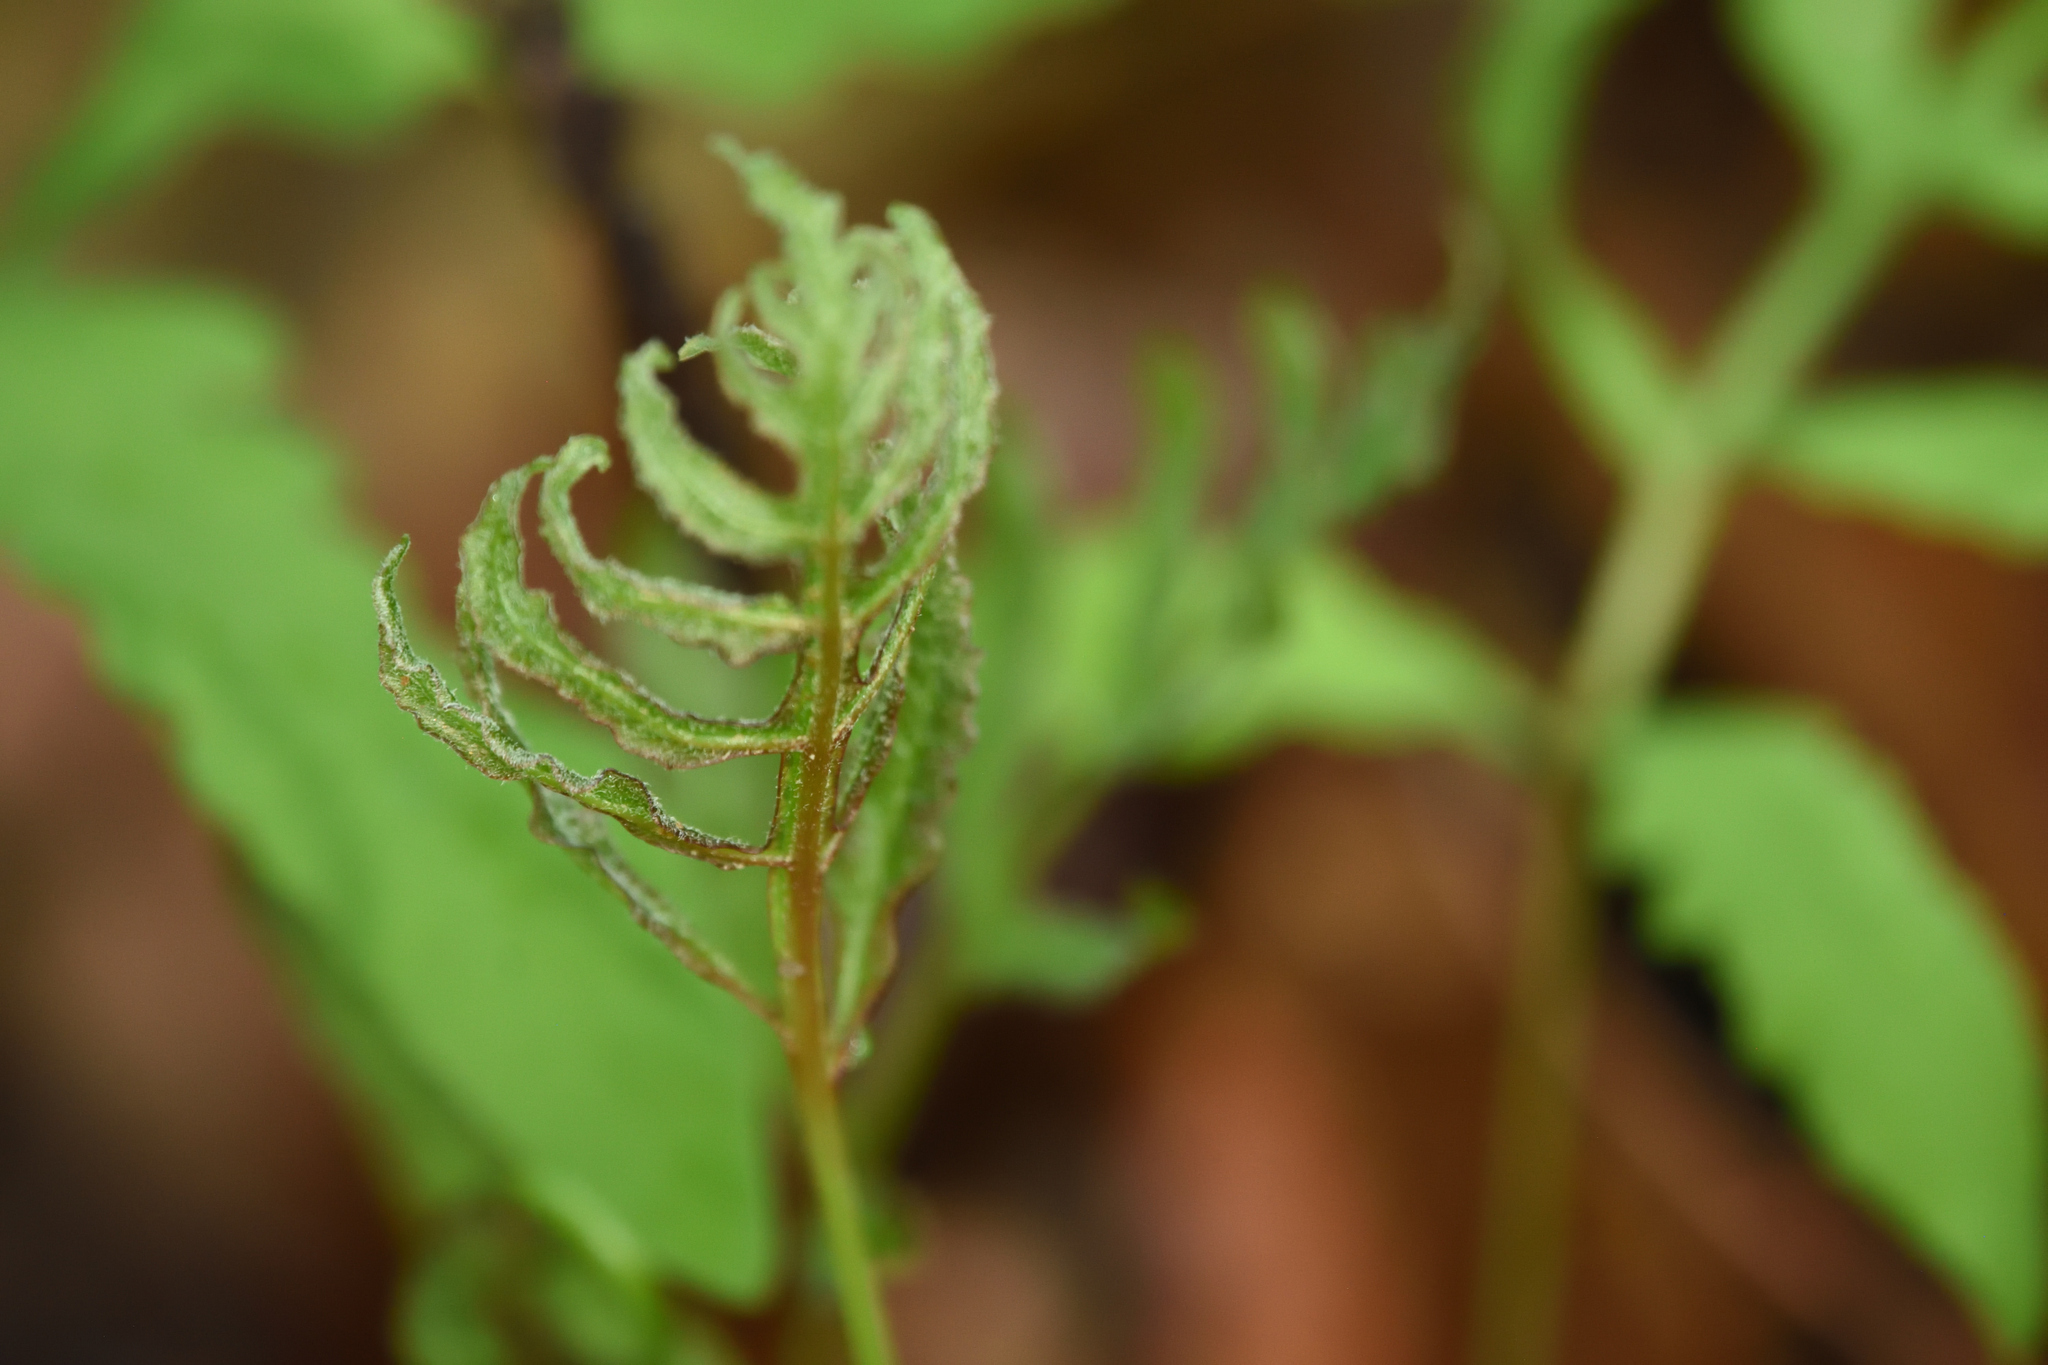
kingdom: Plantae
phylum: Tracheophyta
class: Polypodiopsida
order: Polypodiales
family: Onocleaceae
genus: Onoclea
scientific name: Onoclea sensibilis
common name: Sensitive fern
